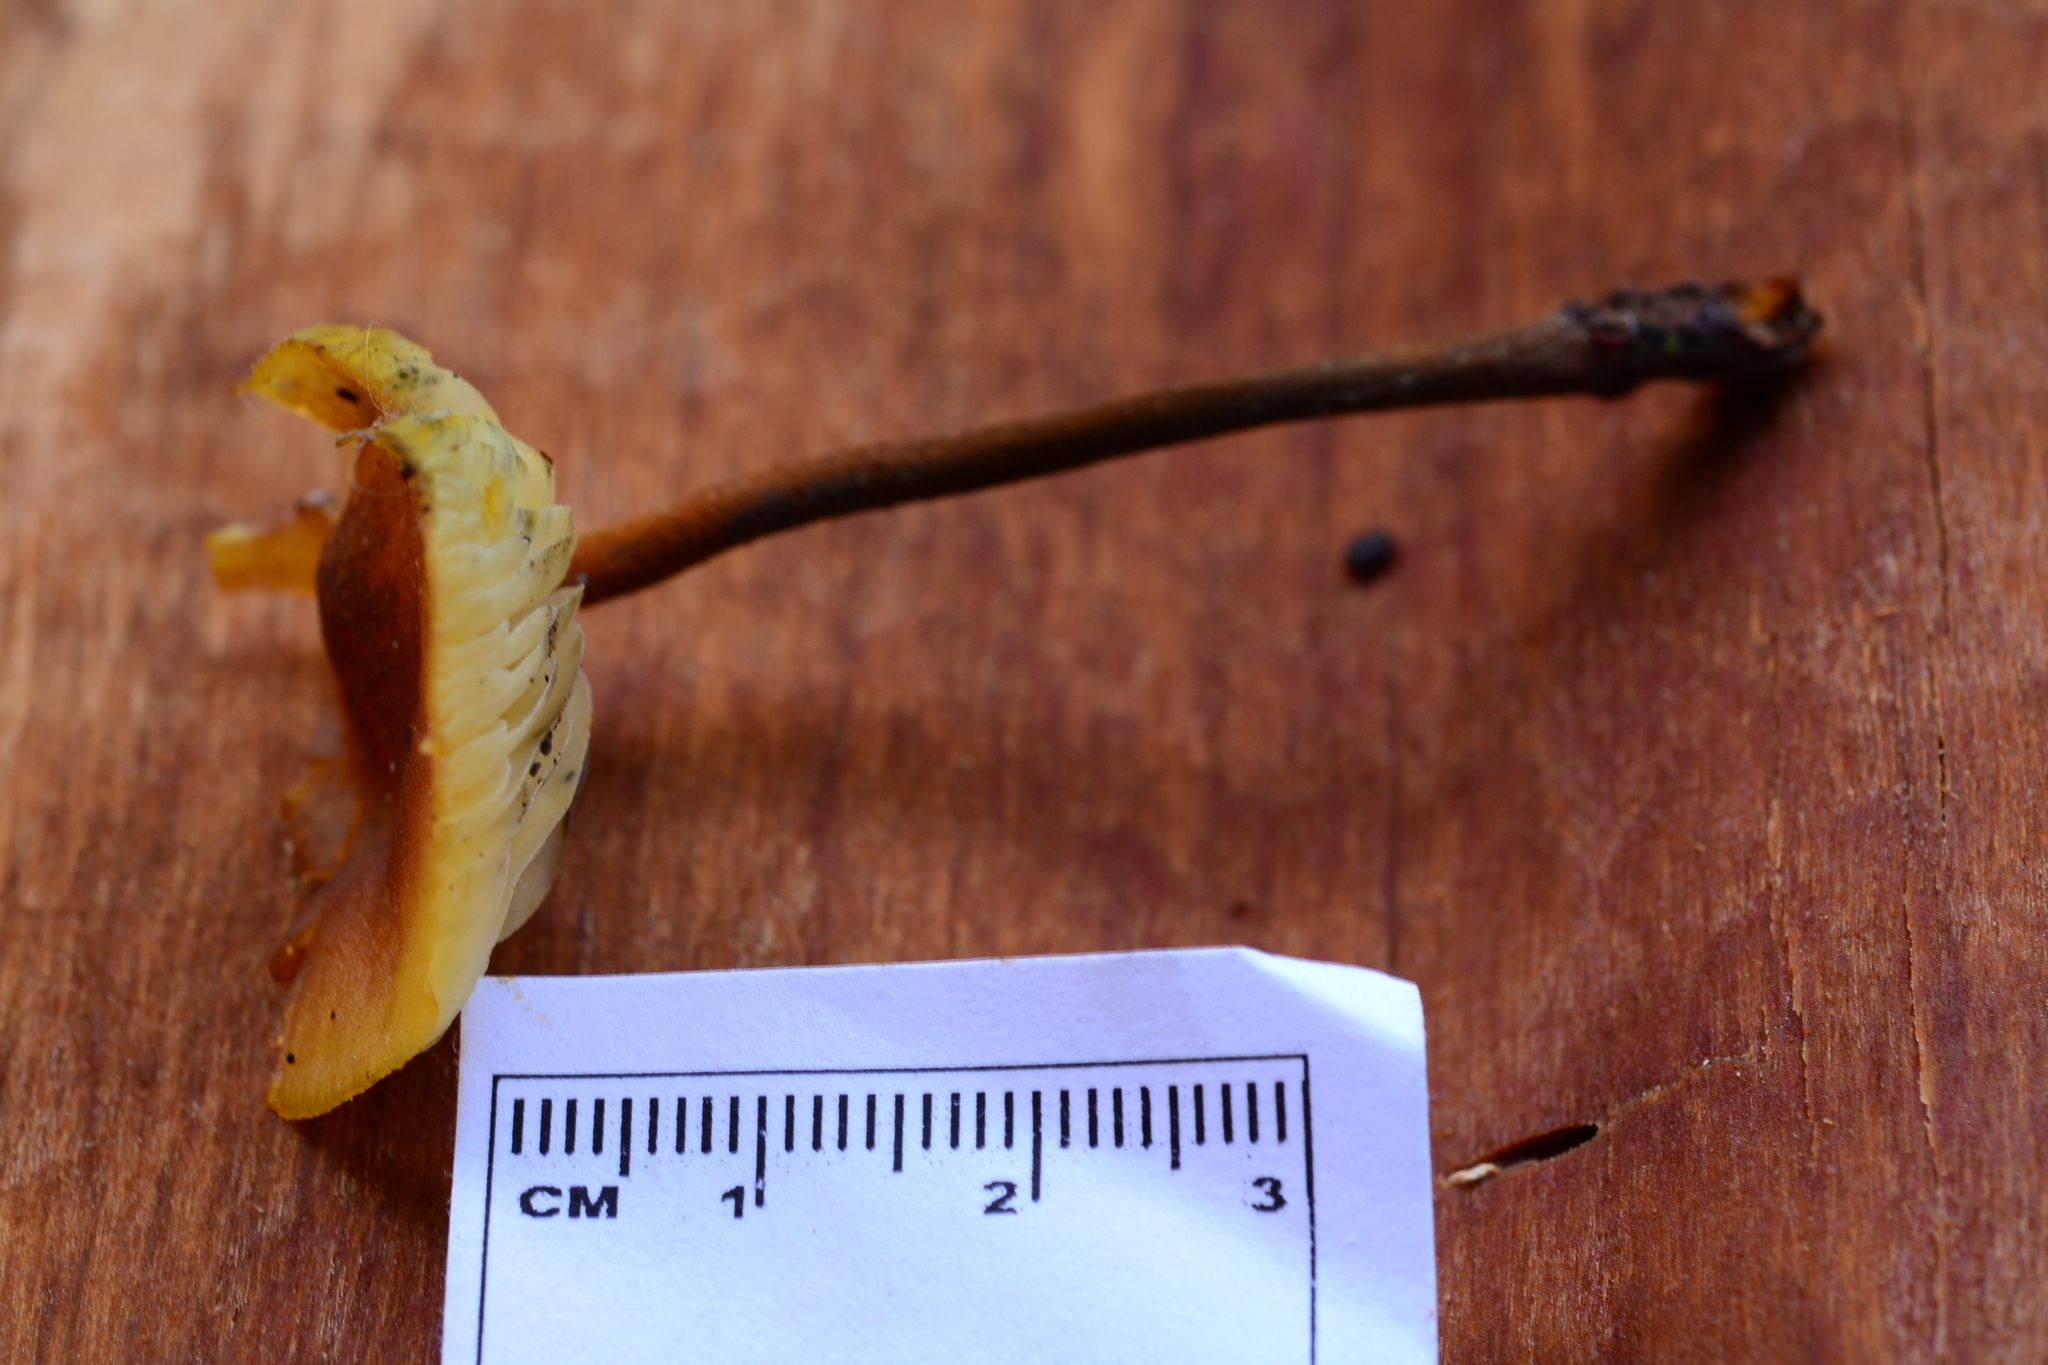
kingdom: Fungi
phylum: Basidiomycota
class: Agaricomycetes
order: Agaricales
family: Mycenaceae
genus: Xeromphalina
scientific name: Xeromphalina tenuipes
